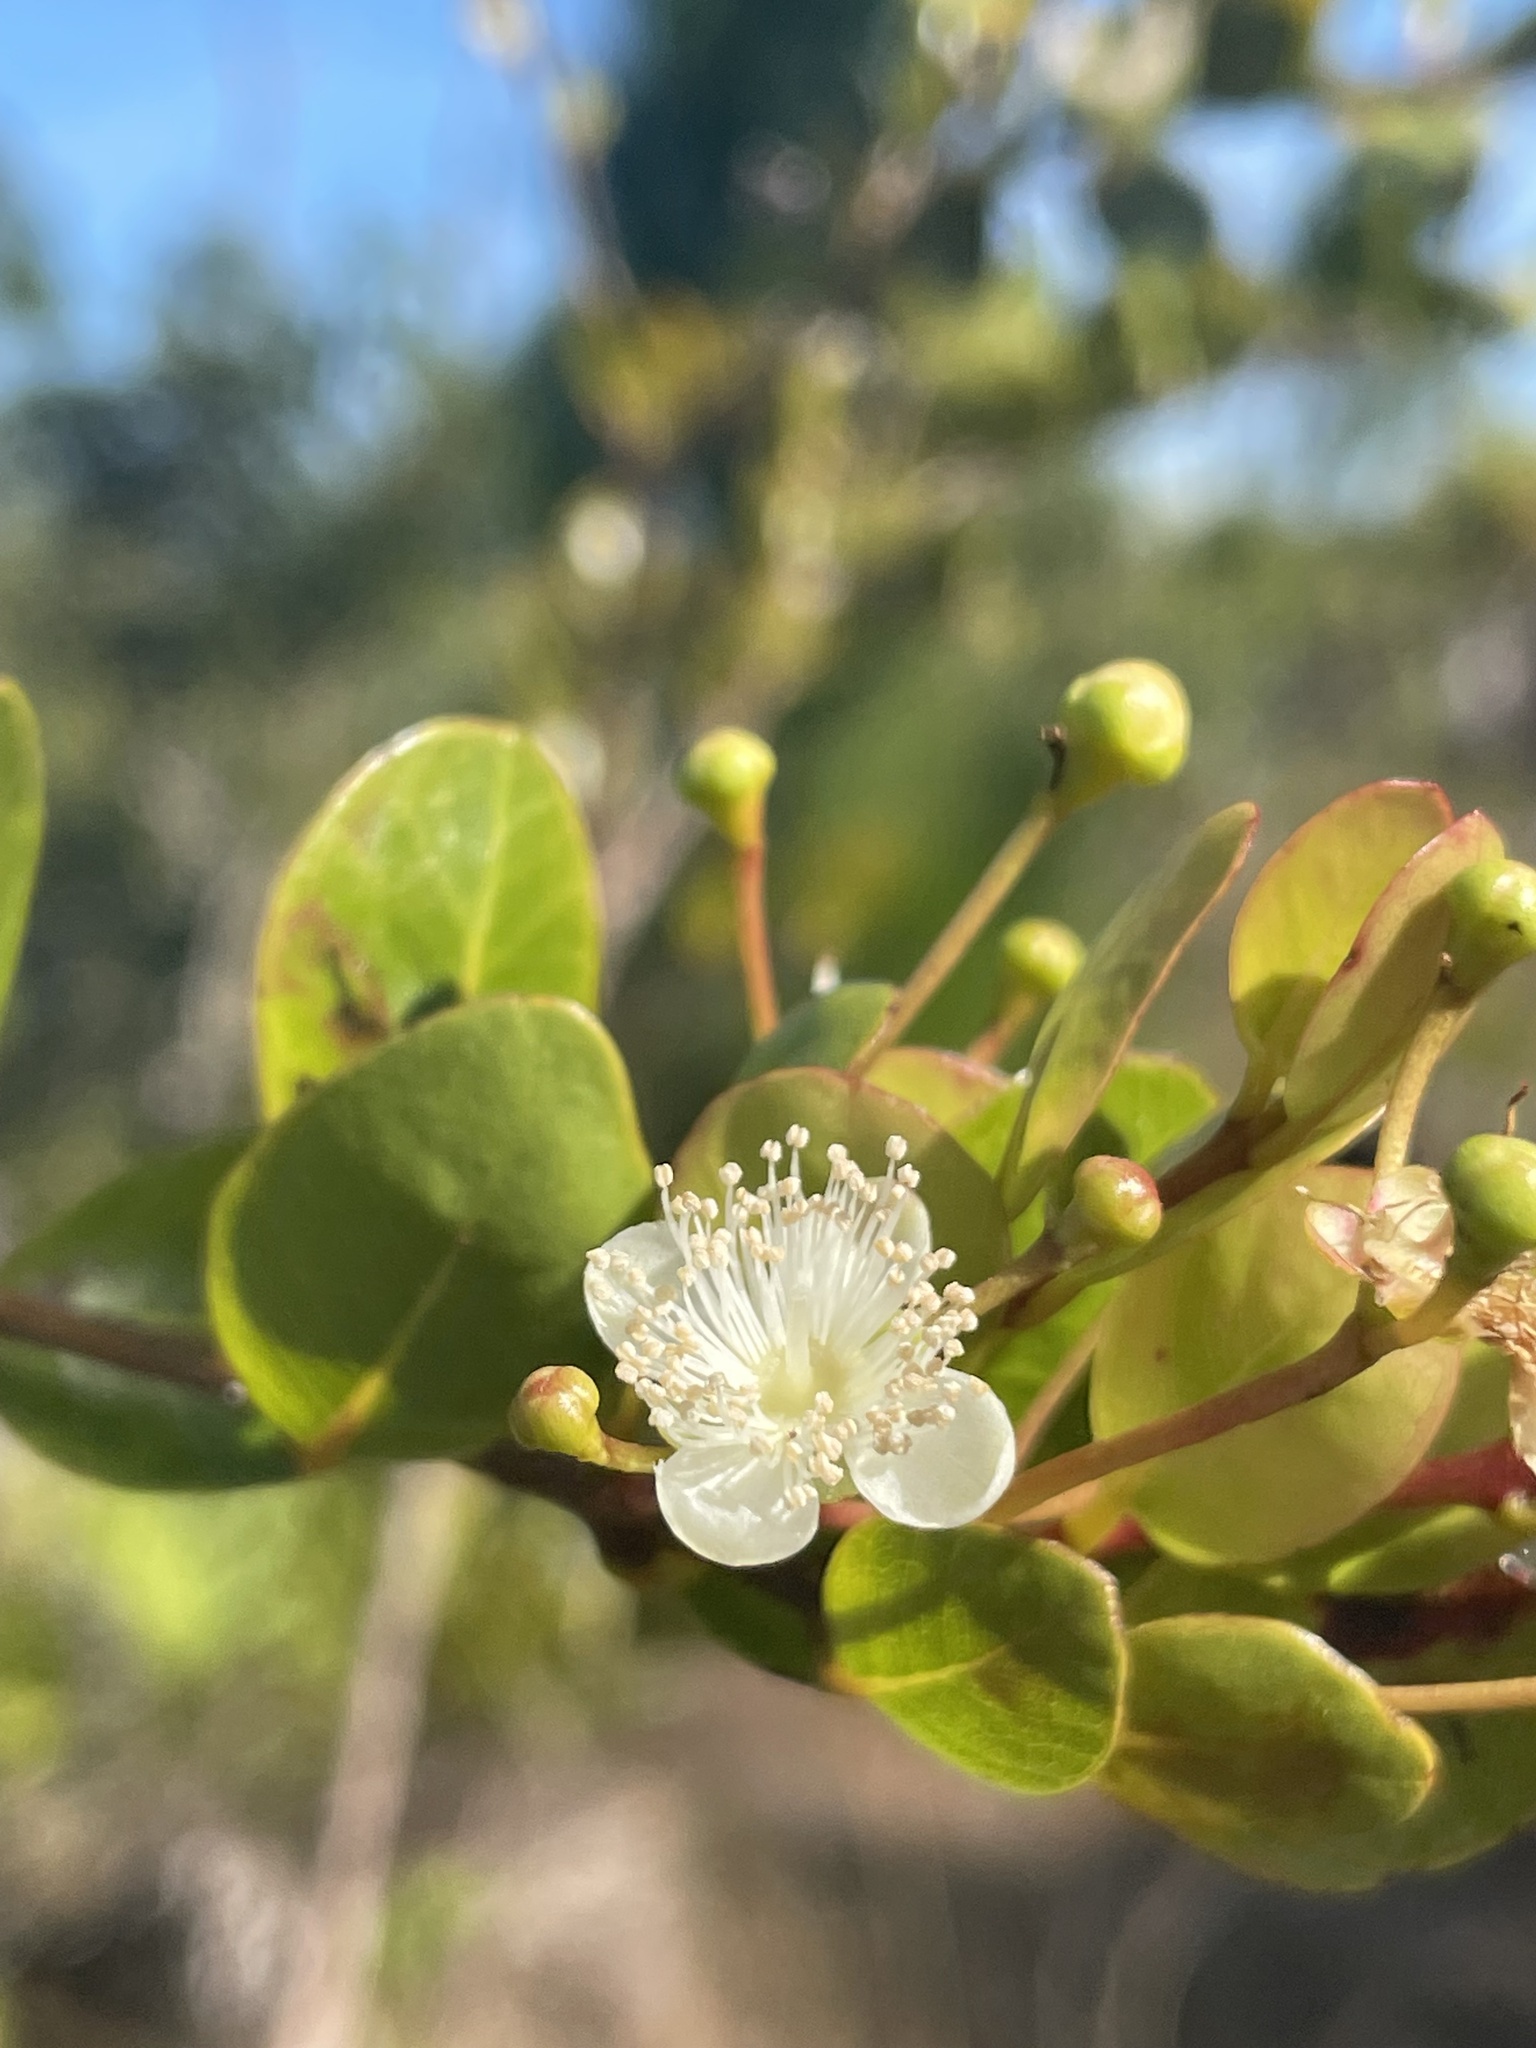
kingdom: Plantae
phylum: Tracheophyta
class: Magnoliopsida
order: Myrtales
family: Myrtaceae
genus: Mosiera
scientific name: Mosiera longipes
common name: Bahama stopper
